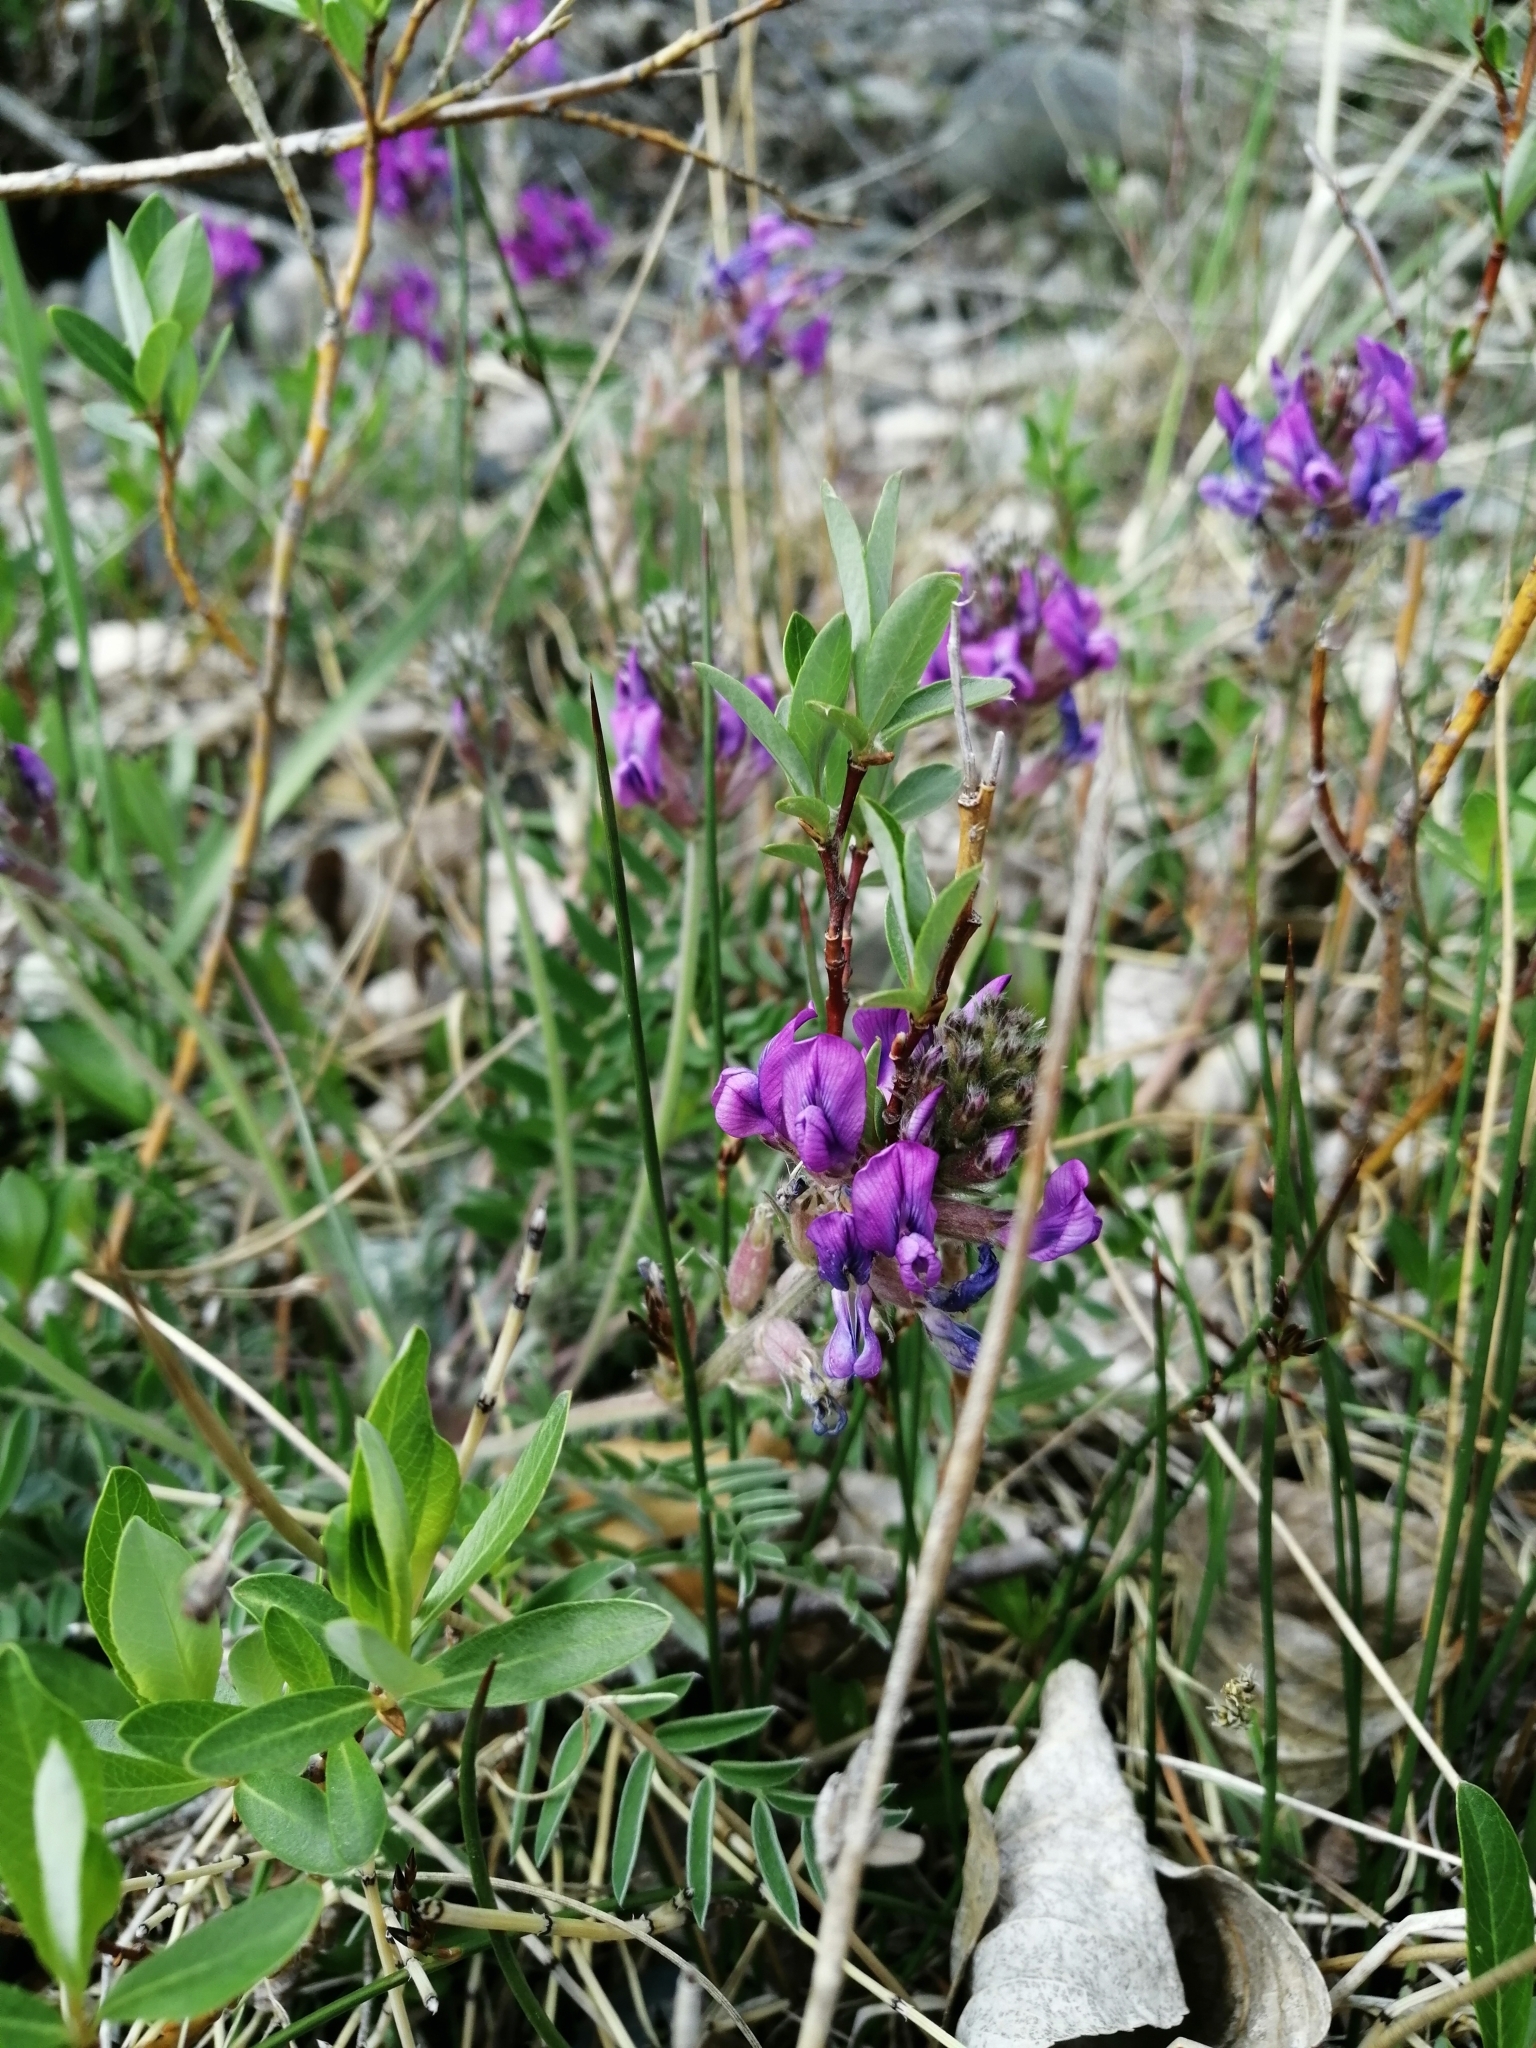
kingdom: Plantae
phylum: Tracheophyta
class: Magnoliopsida
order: Fabales
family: Fabaceae
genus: Oxytropis
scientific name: Oxytropis strobilacea
